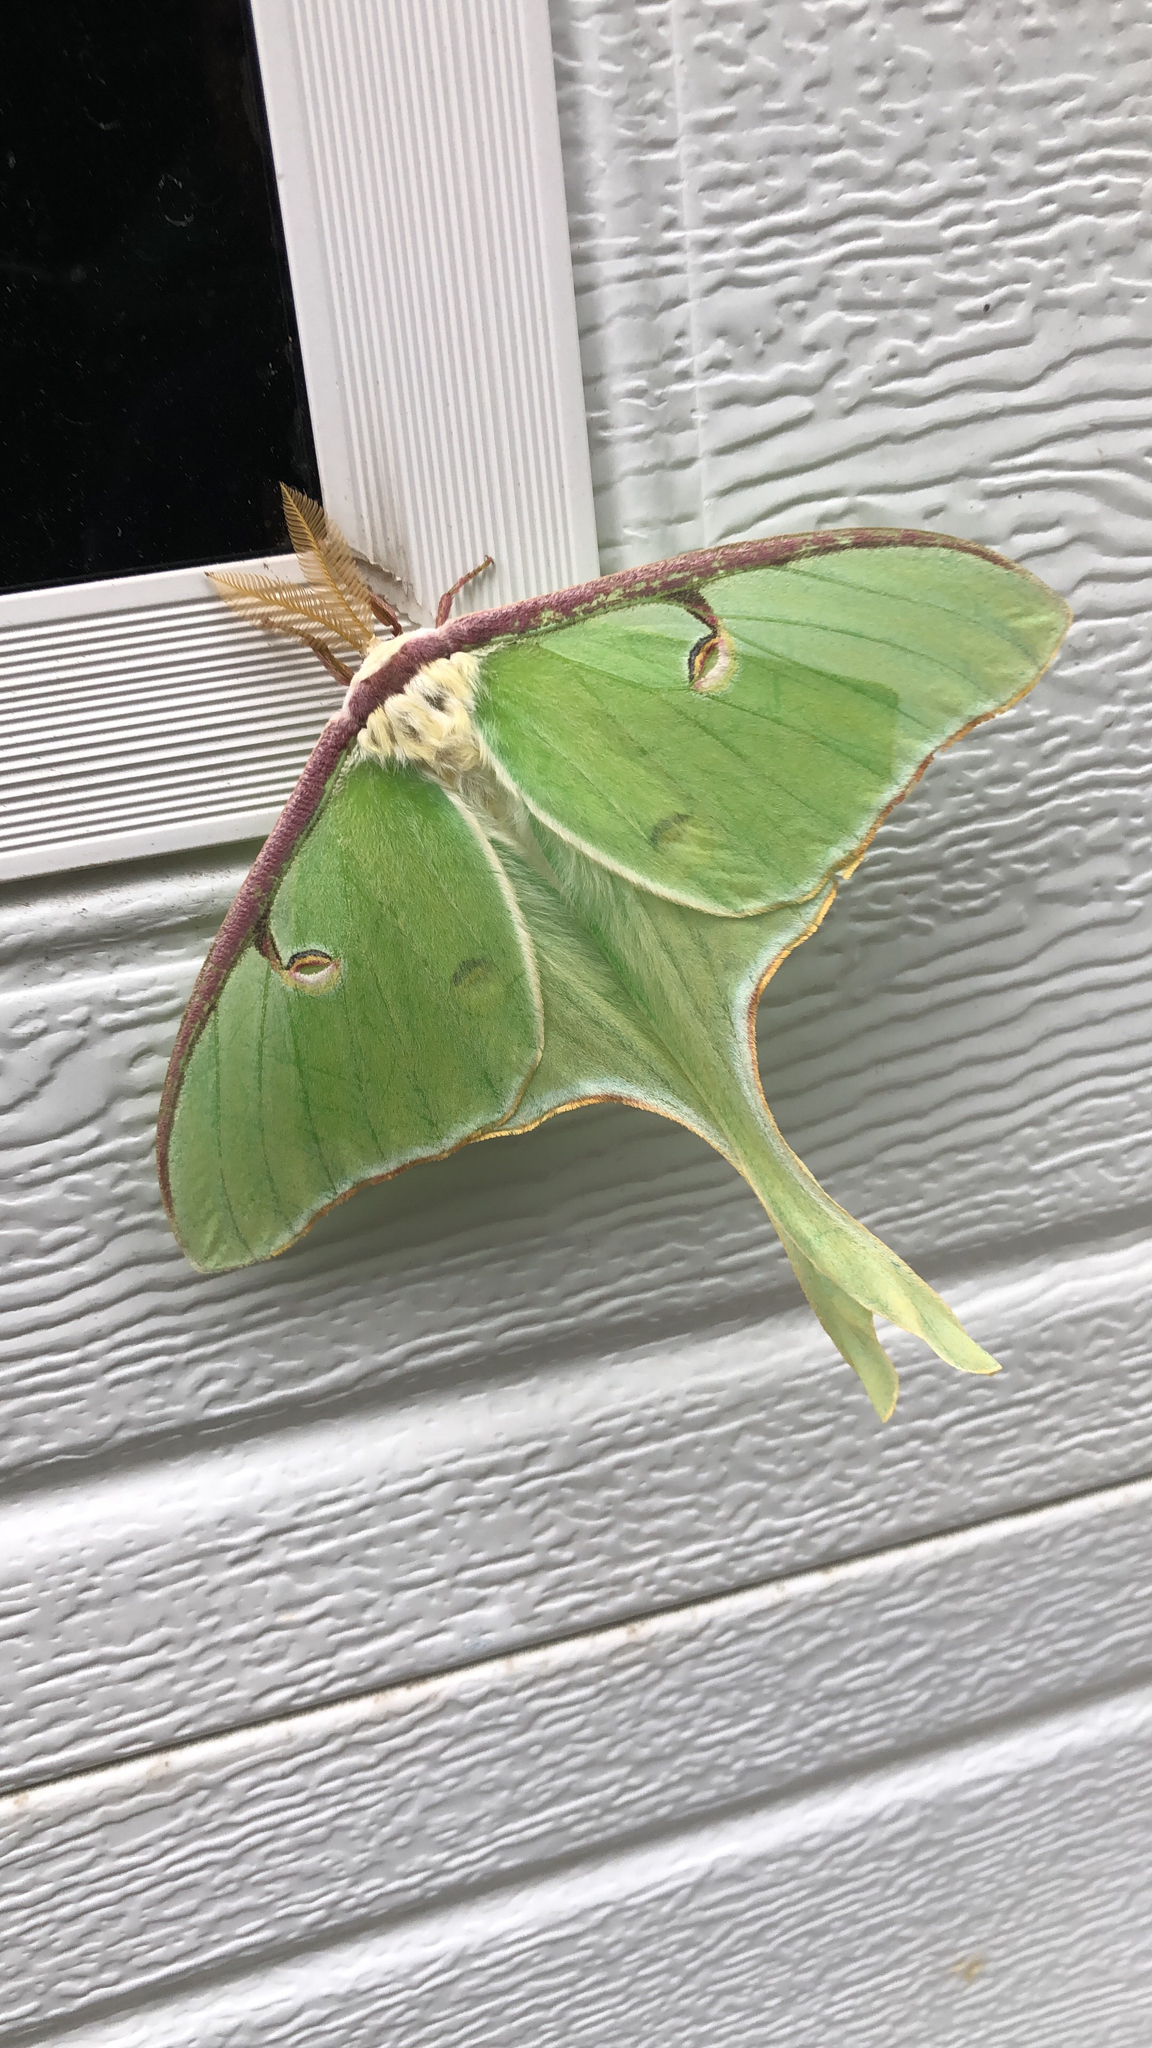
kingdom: Animalia
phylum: Arthropoda
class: Insecta
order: Lepidoptera
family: Saturniidae
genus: Actias
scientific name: Actias luna
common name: Luna moth
